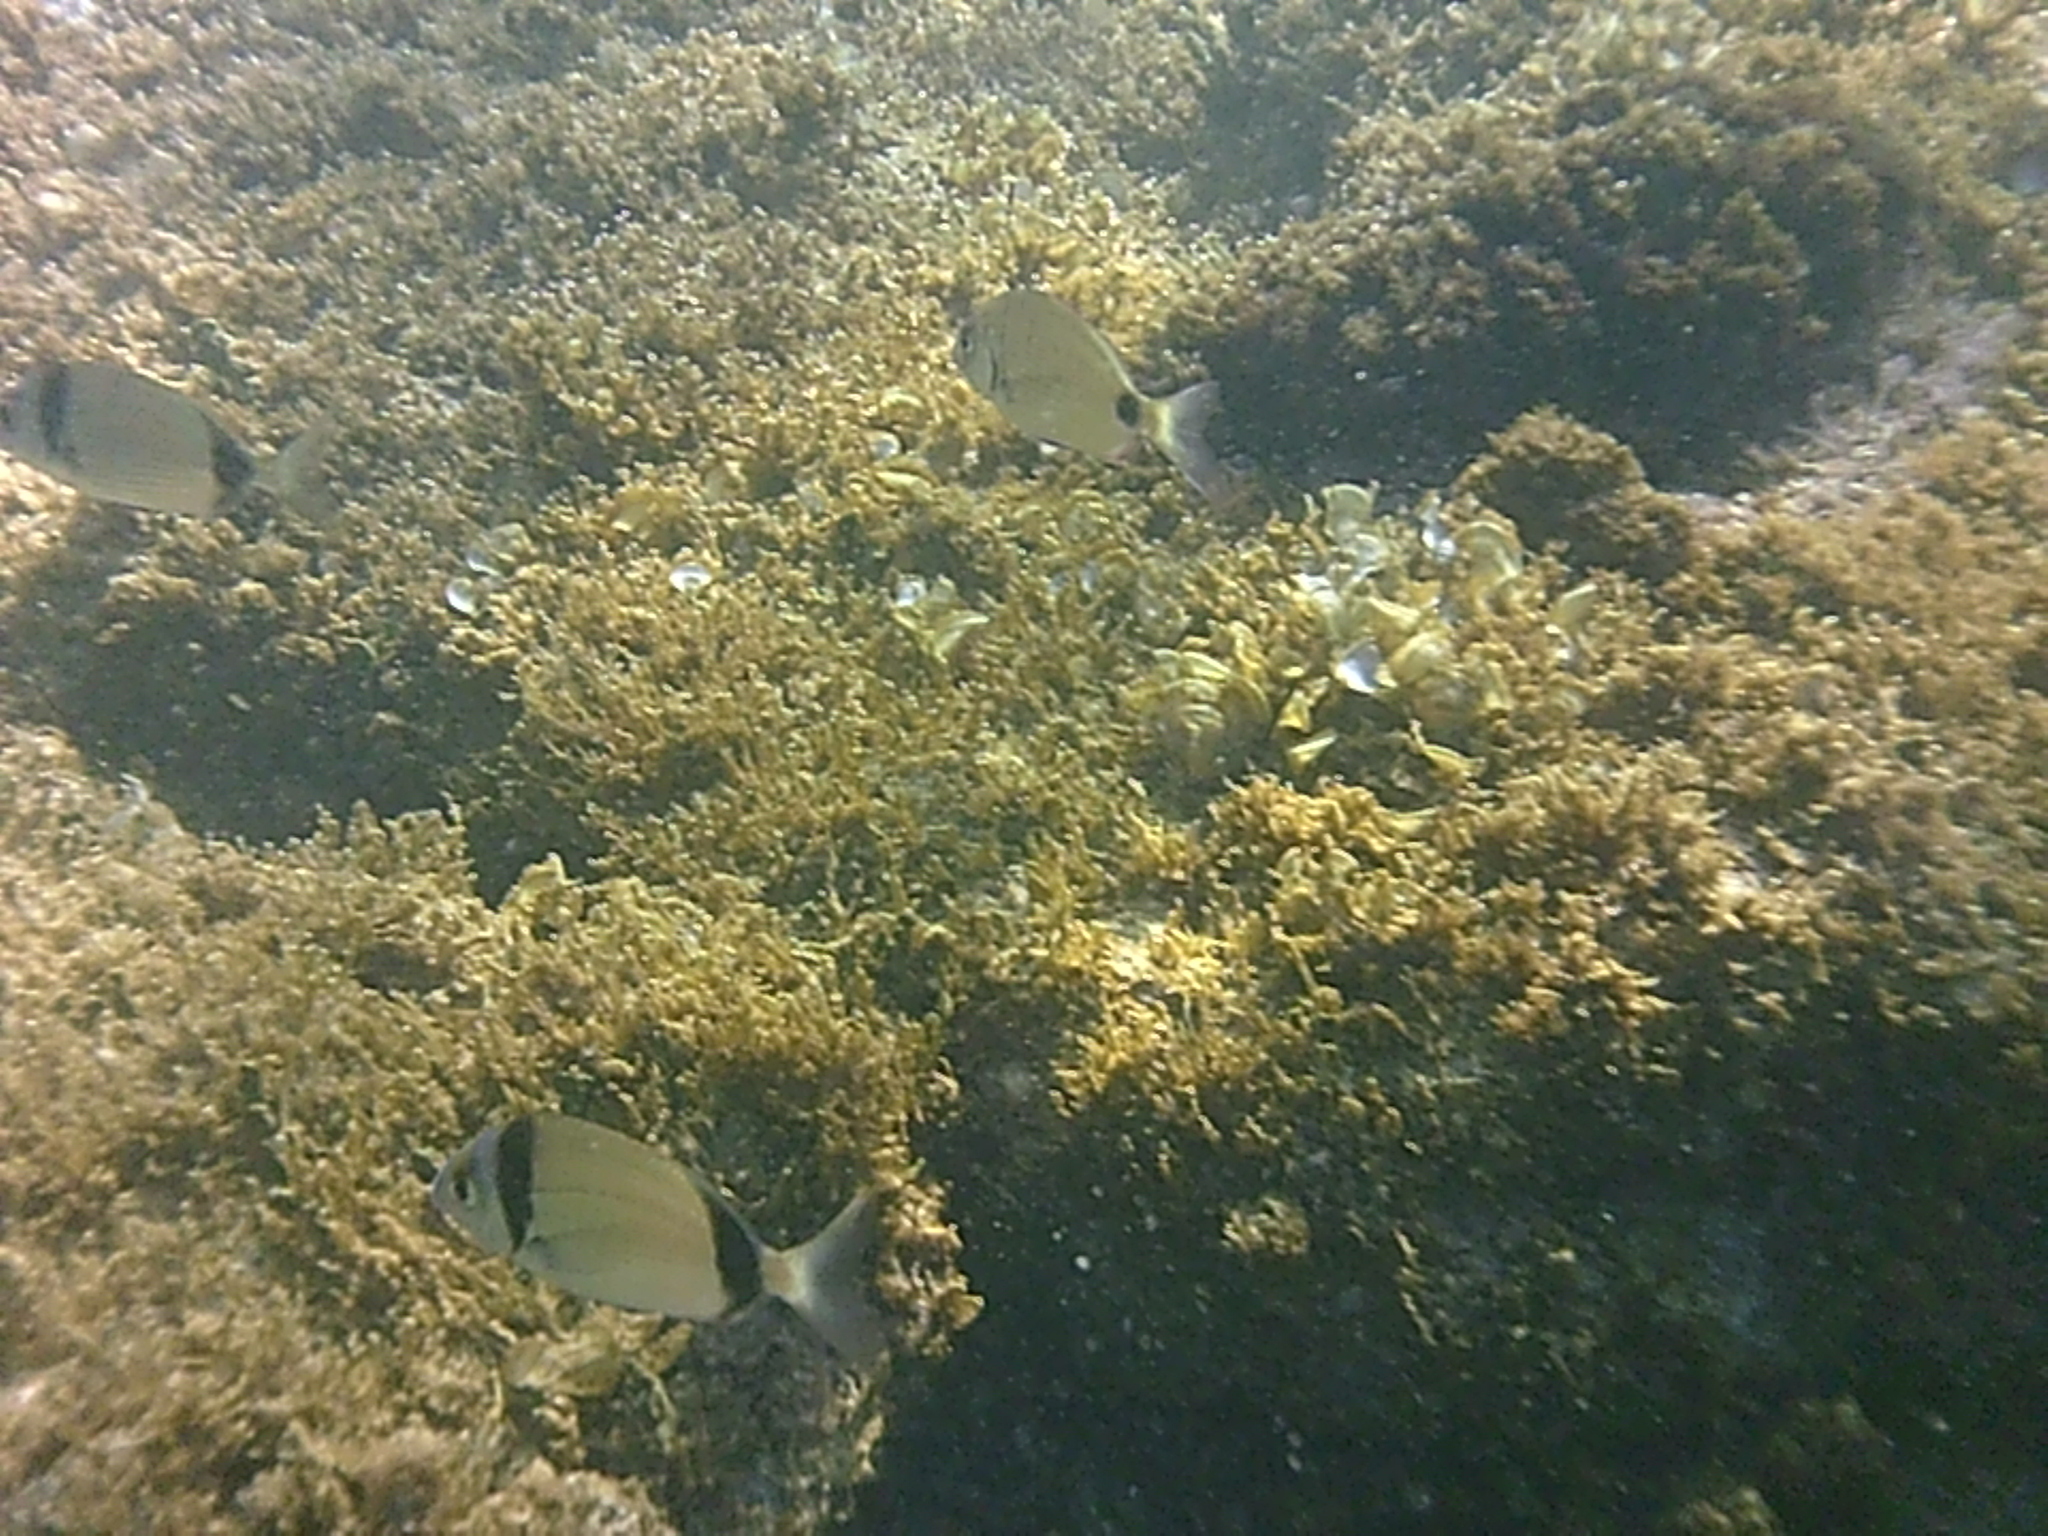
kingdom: Animalia
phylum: Chordata
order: Perciformes
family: Sparidae
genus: Diplodus
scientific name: Diplodus vulgaris
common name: Common two-banded seabream
